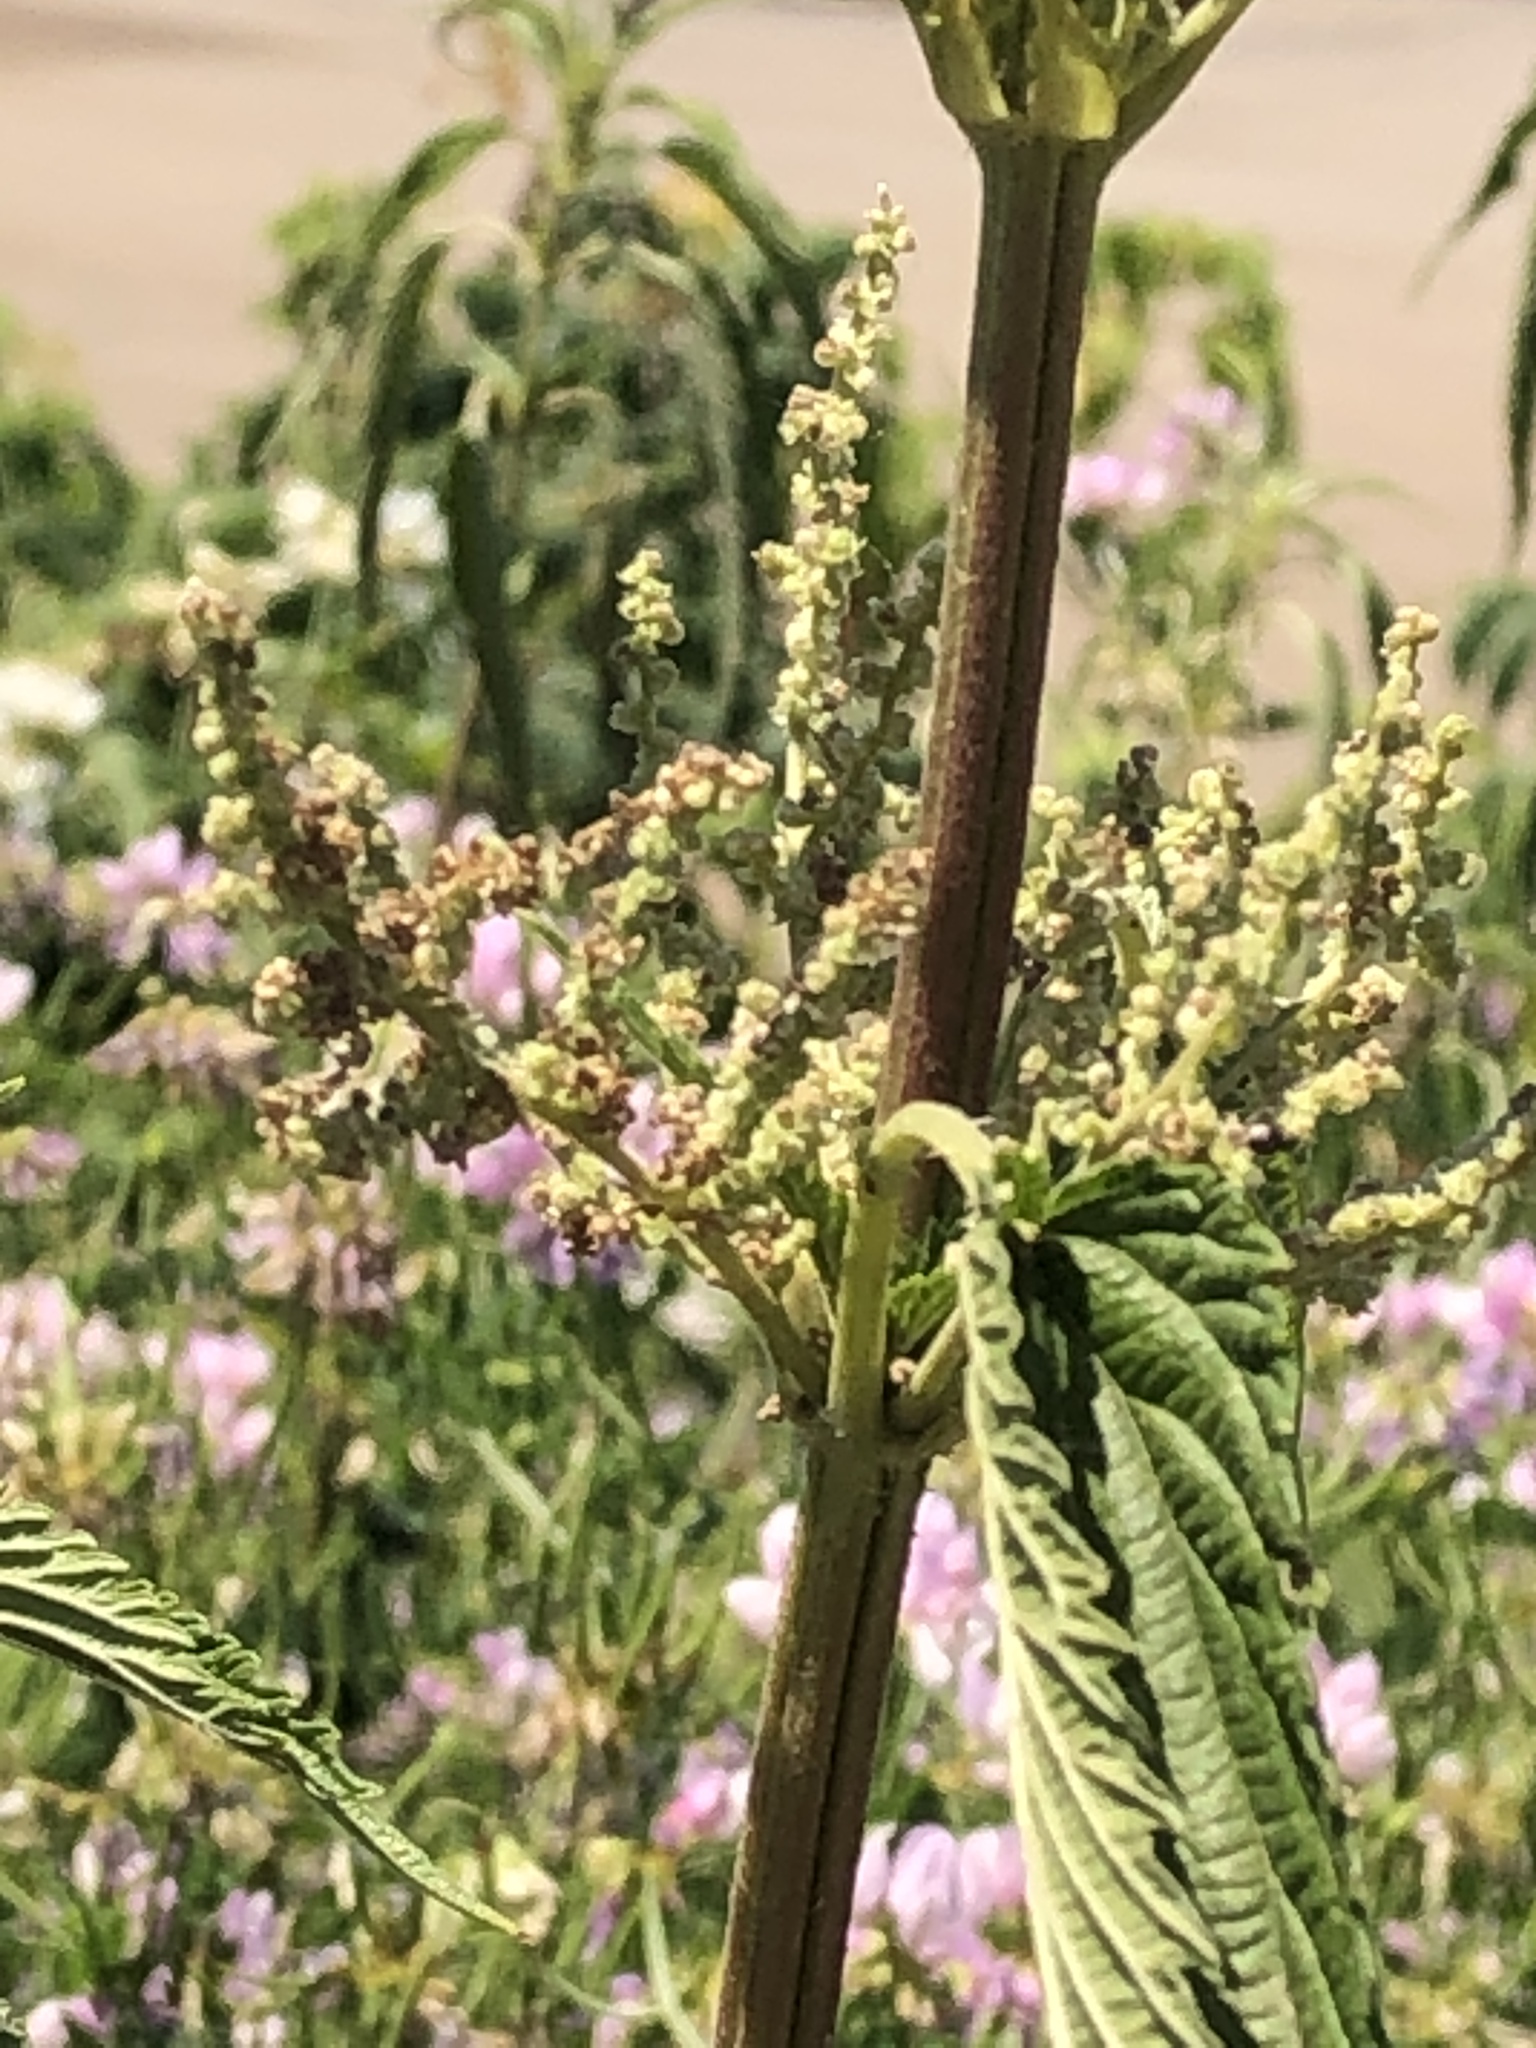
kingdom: Plantae
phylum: Tracheophyta
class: Magnoliopsida
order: Rosales
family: Urticaceae
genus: Urtica
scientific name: Urtica dioica
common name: Common nettle
